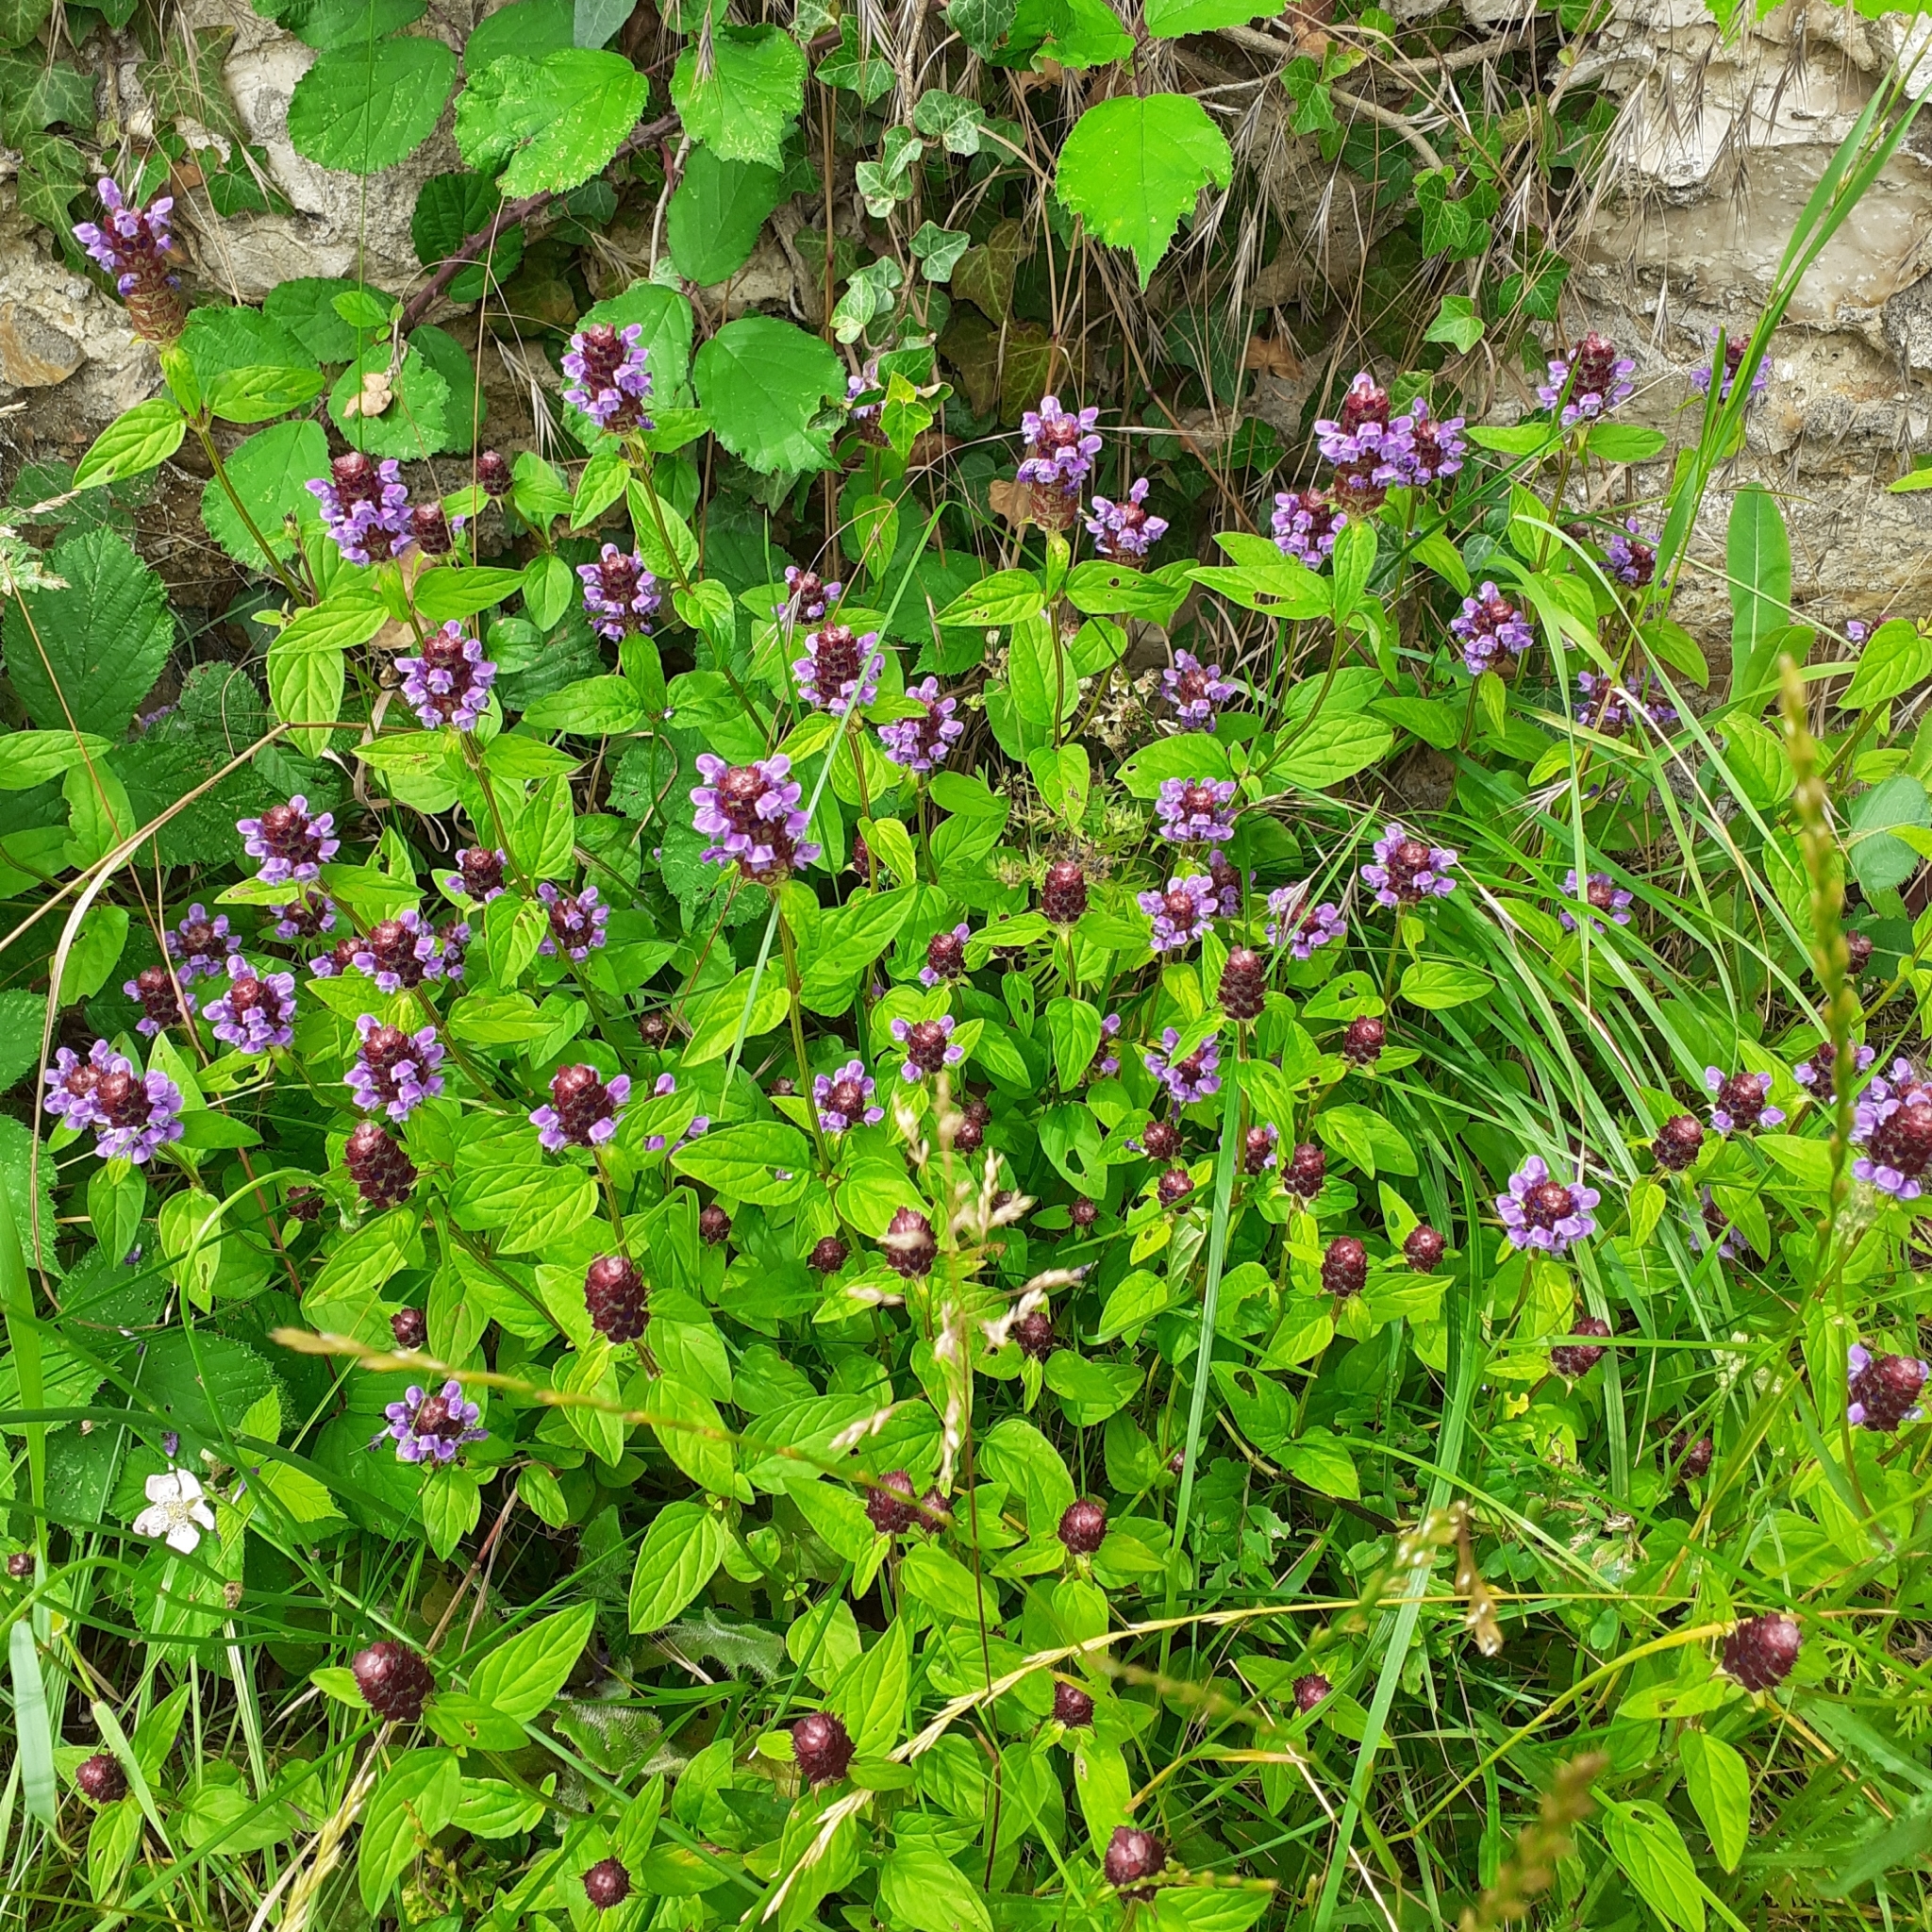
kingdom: Plantae
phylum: Tracheophyta
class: Magnoliopsida
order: Lamiales
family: Lamiaceae
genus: Prunella
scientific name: Prunella vulgaris
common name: Heal-all
